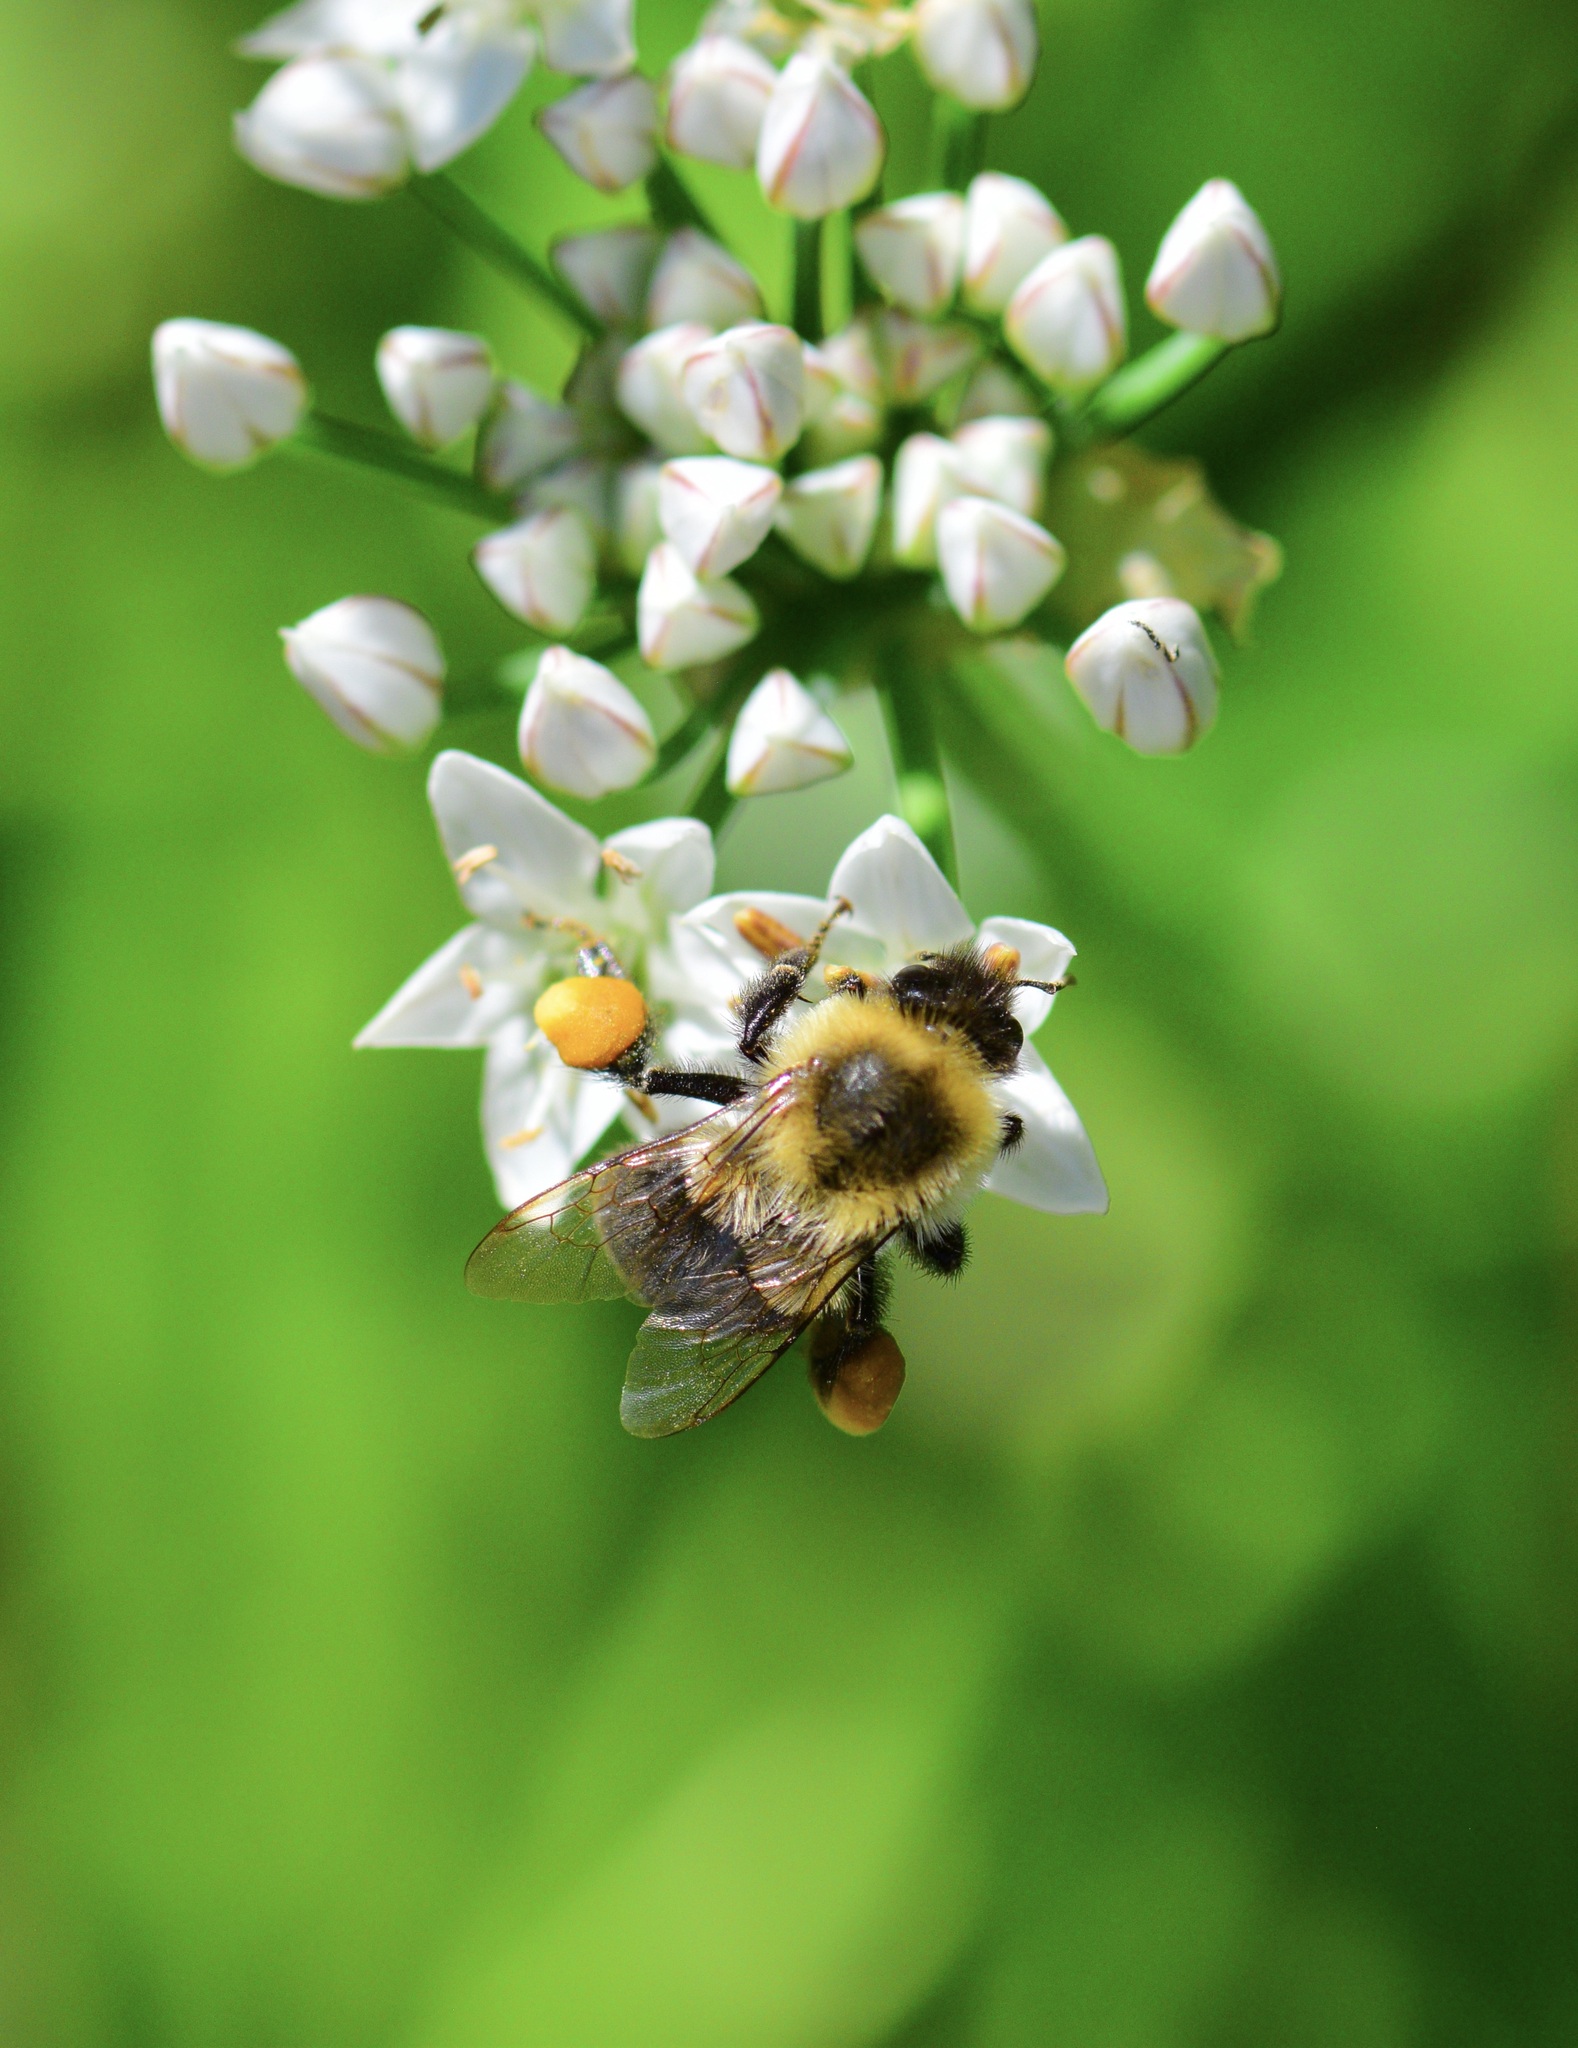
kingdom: Animalia
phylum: Arthropoda
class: Insecta
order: Hymenoptera
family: Apidae
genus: Bombus
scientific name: Bombus impatiens
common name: Common eastern bumble bee
